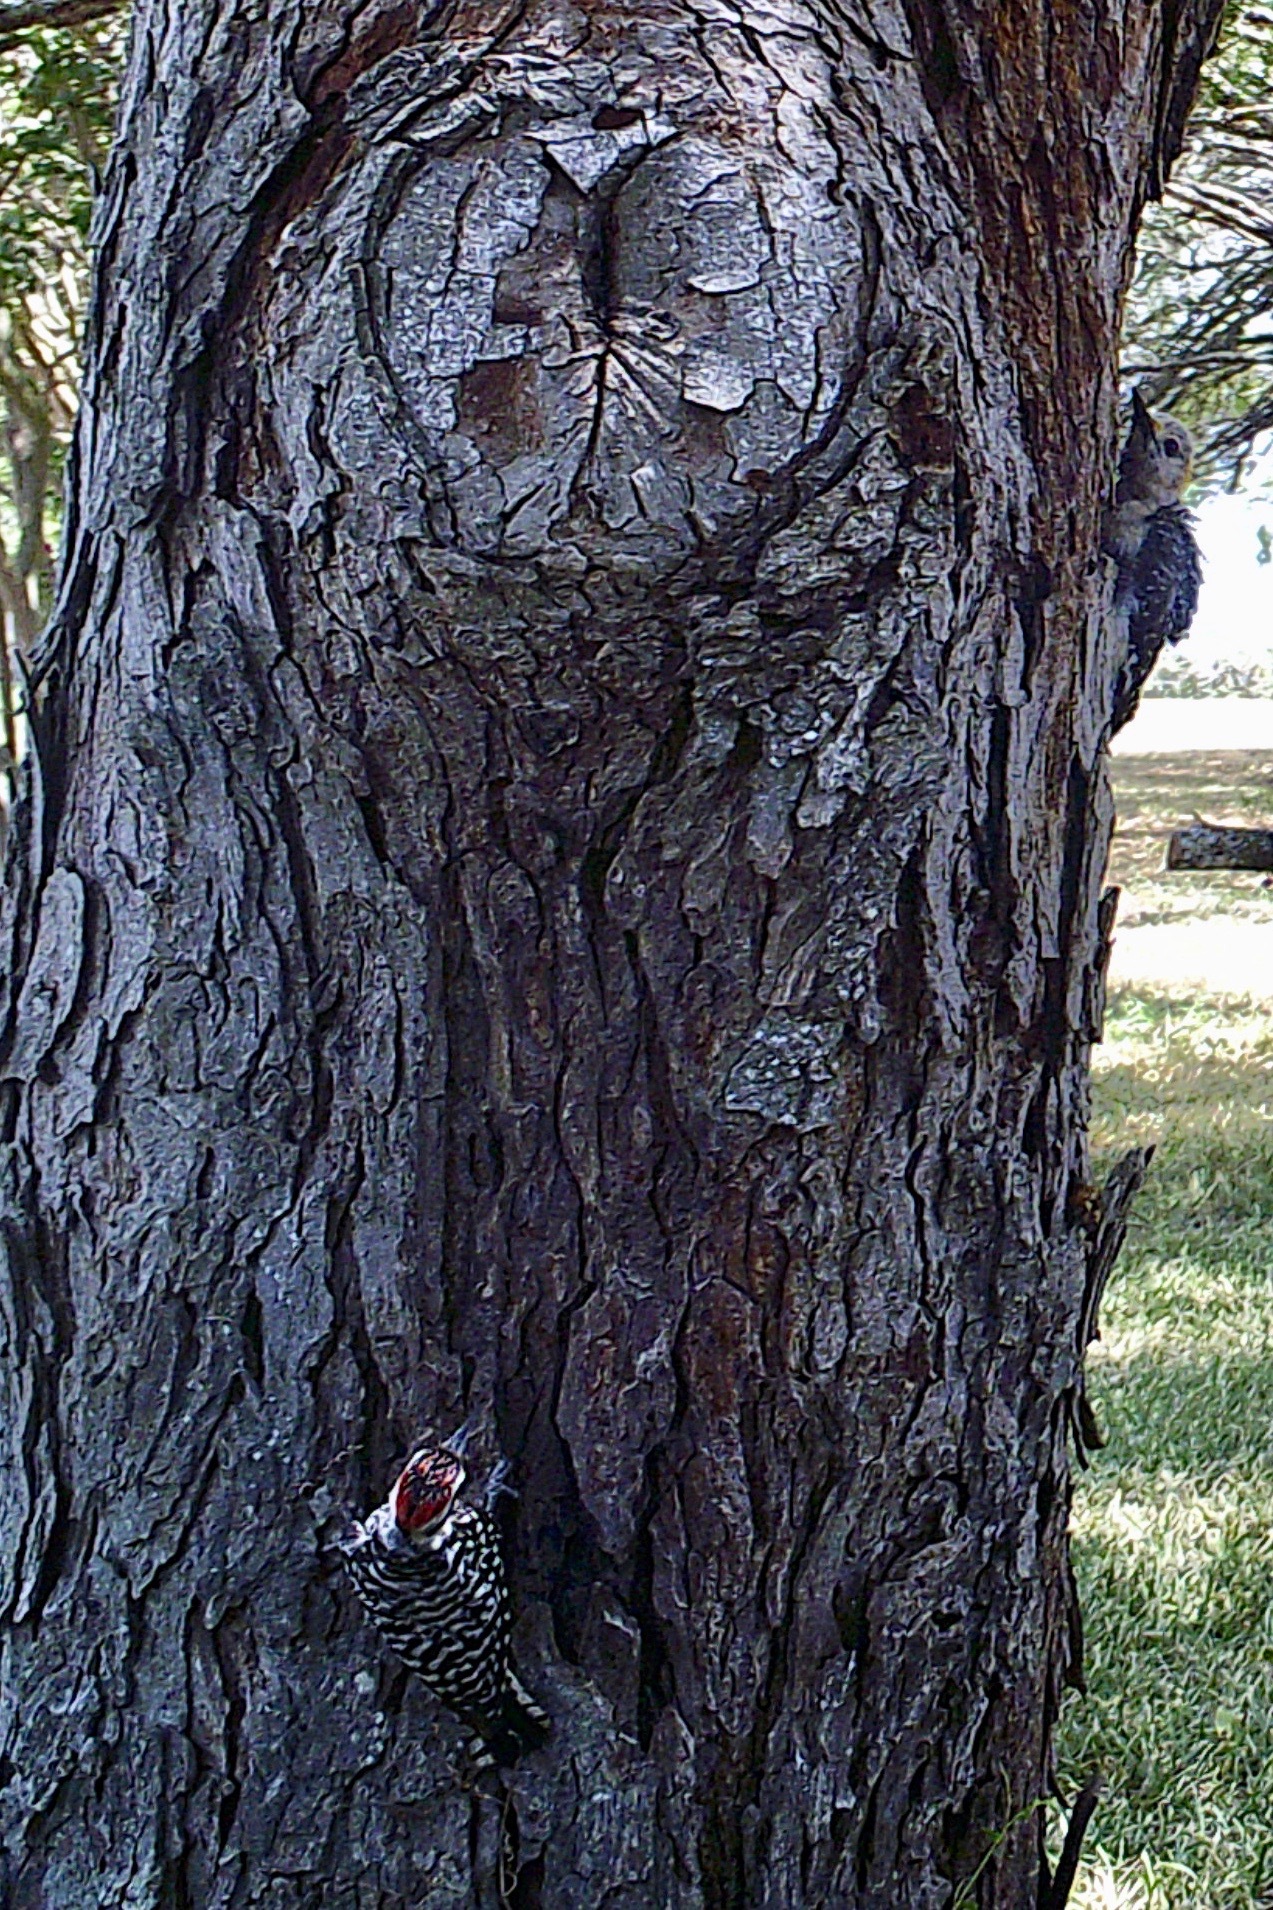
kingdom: Animalia
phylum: Chordata
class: Aves
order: Piciformes
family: Picidae
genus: Dryobates
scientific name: Dryobates scalaris
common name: Ladder-backed woodpecker
